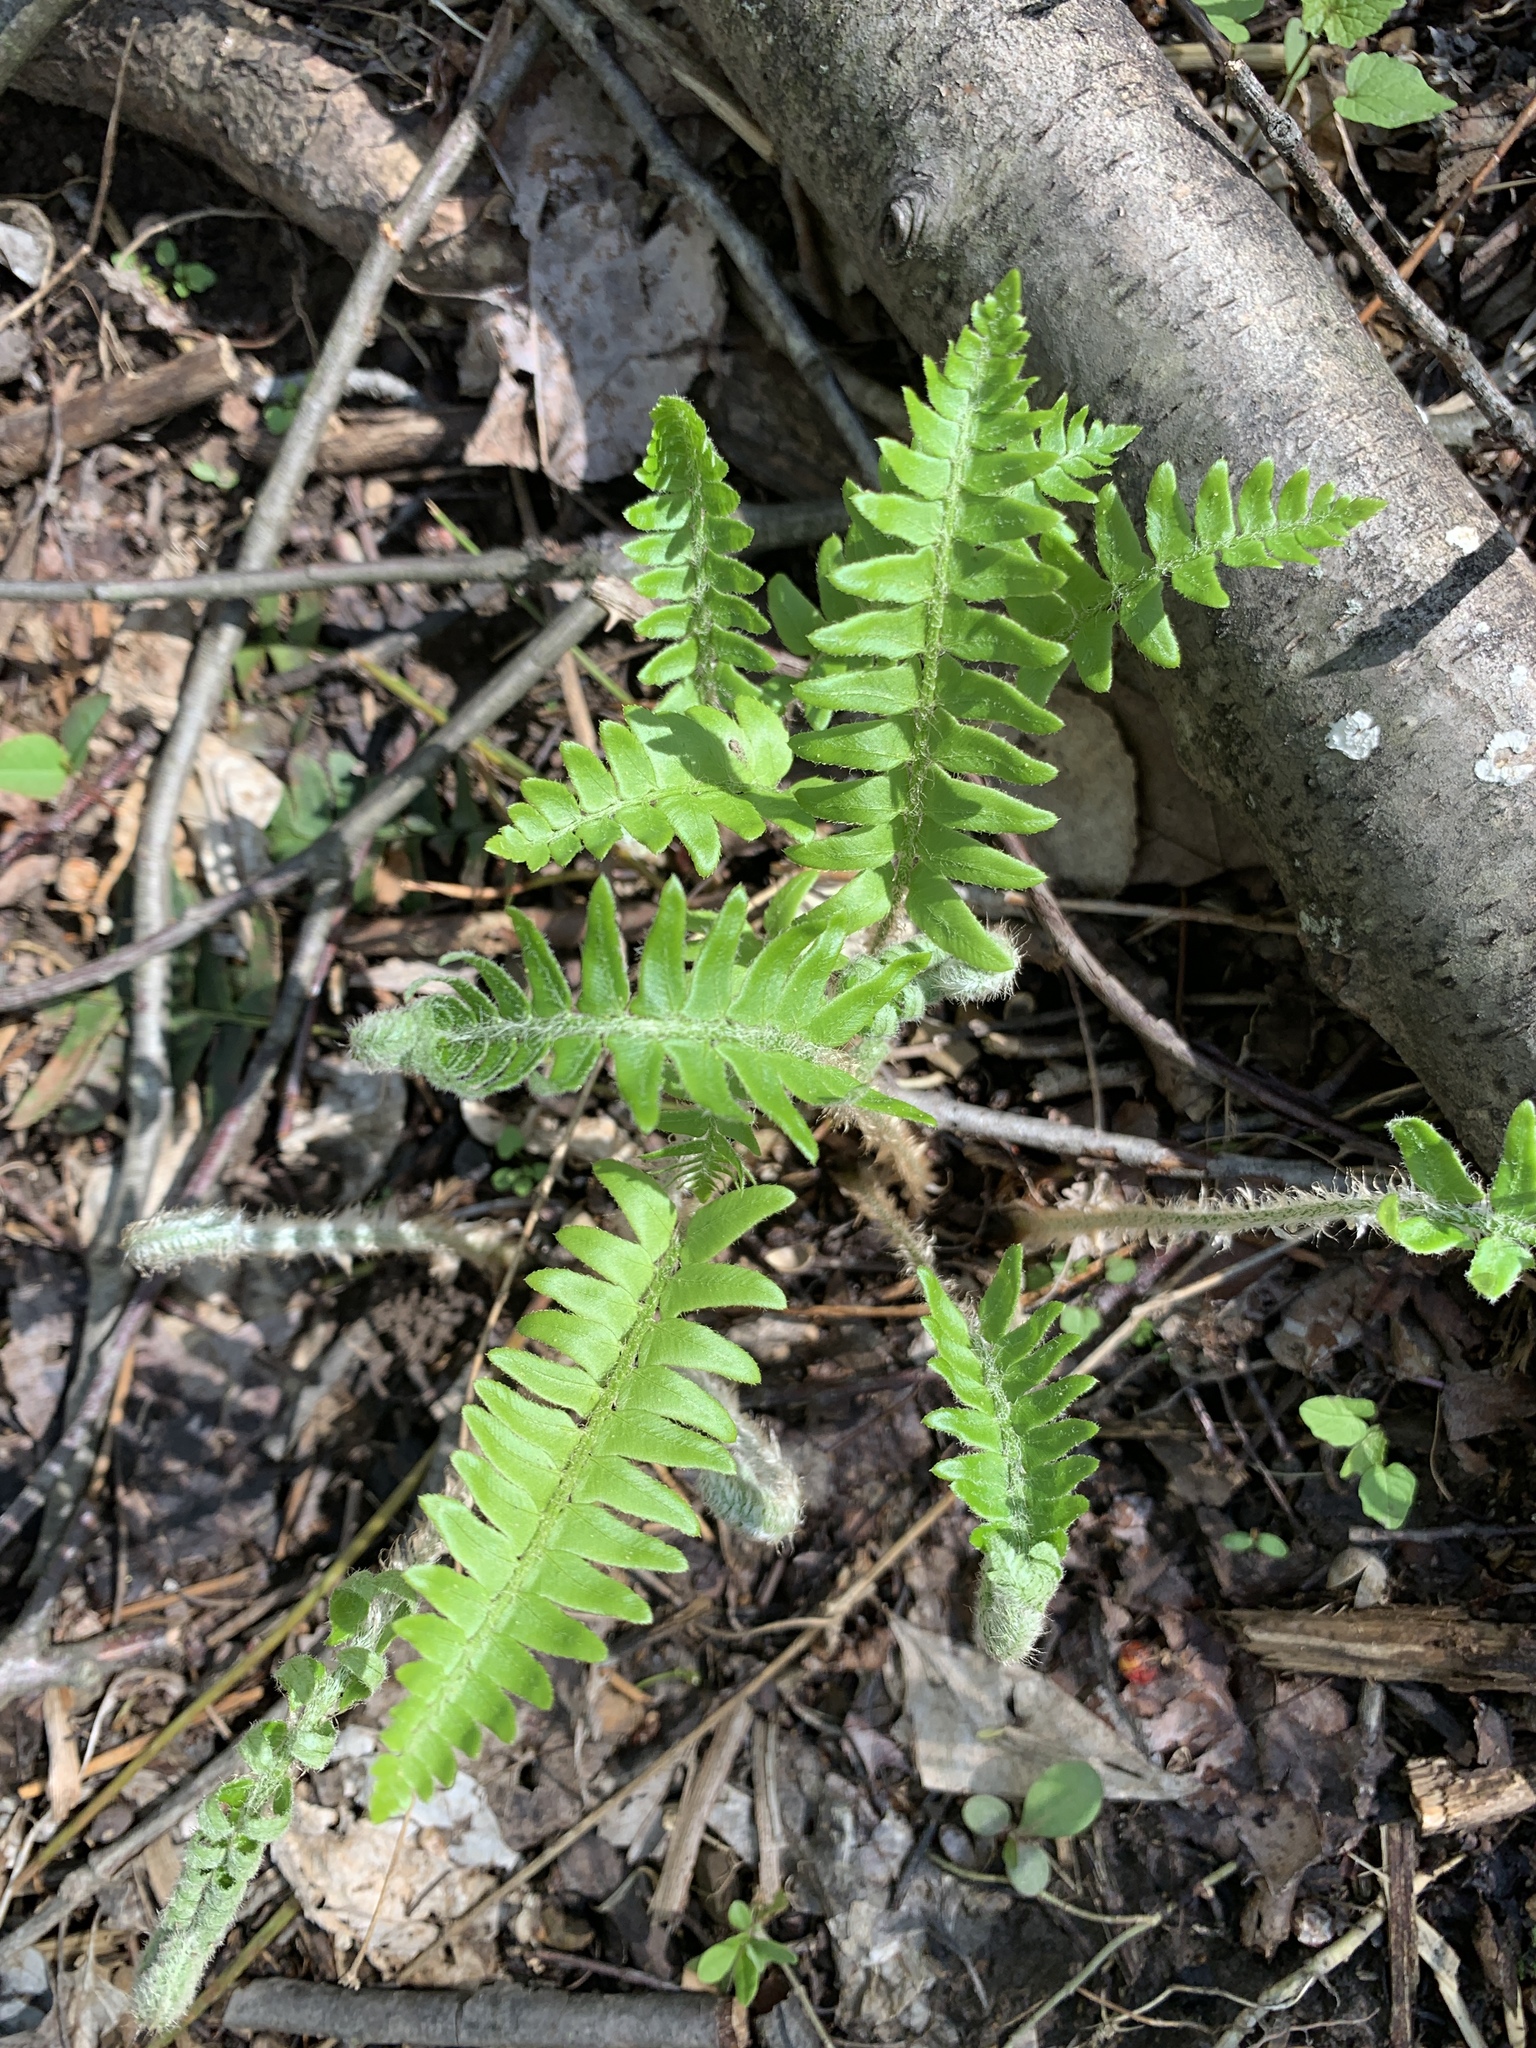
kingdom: Plantae
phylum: Tracheophyta
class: Polypodiopsida
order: Polypodiales
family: Dryopteridaceae
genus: Polystichum
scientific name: Polystichum acrostichoides
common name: Christmas fern
